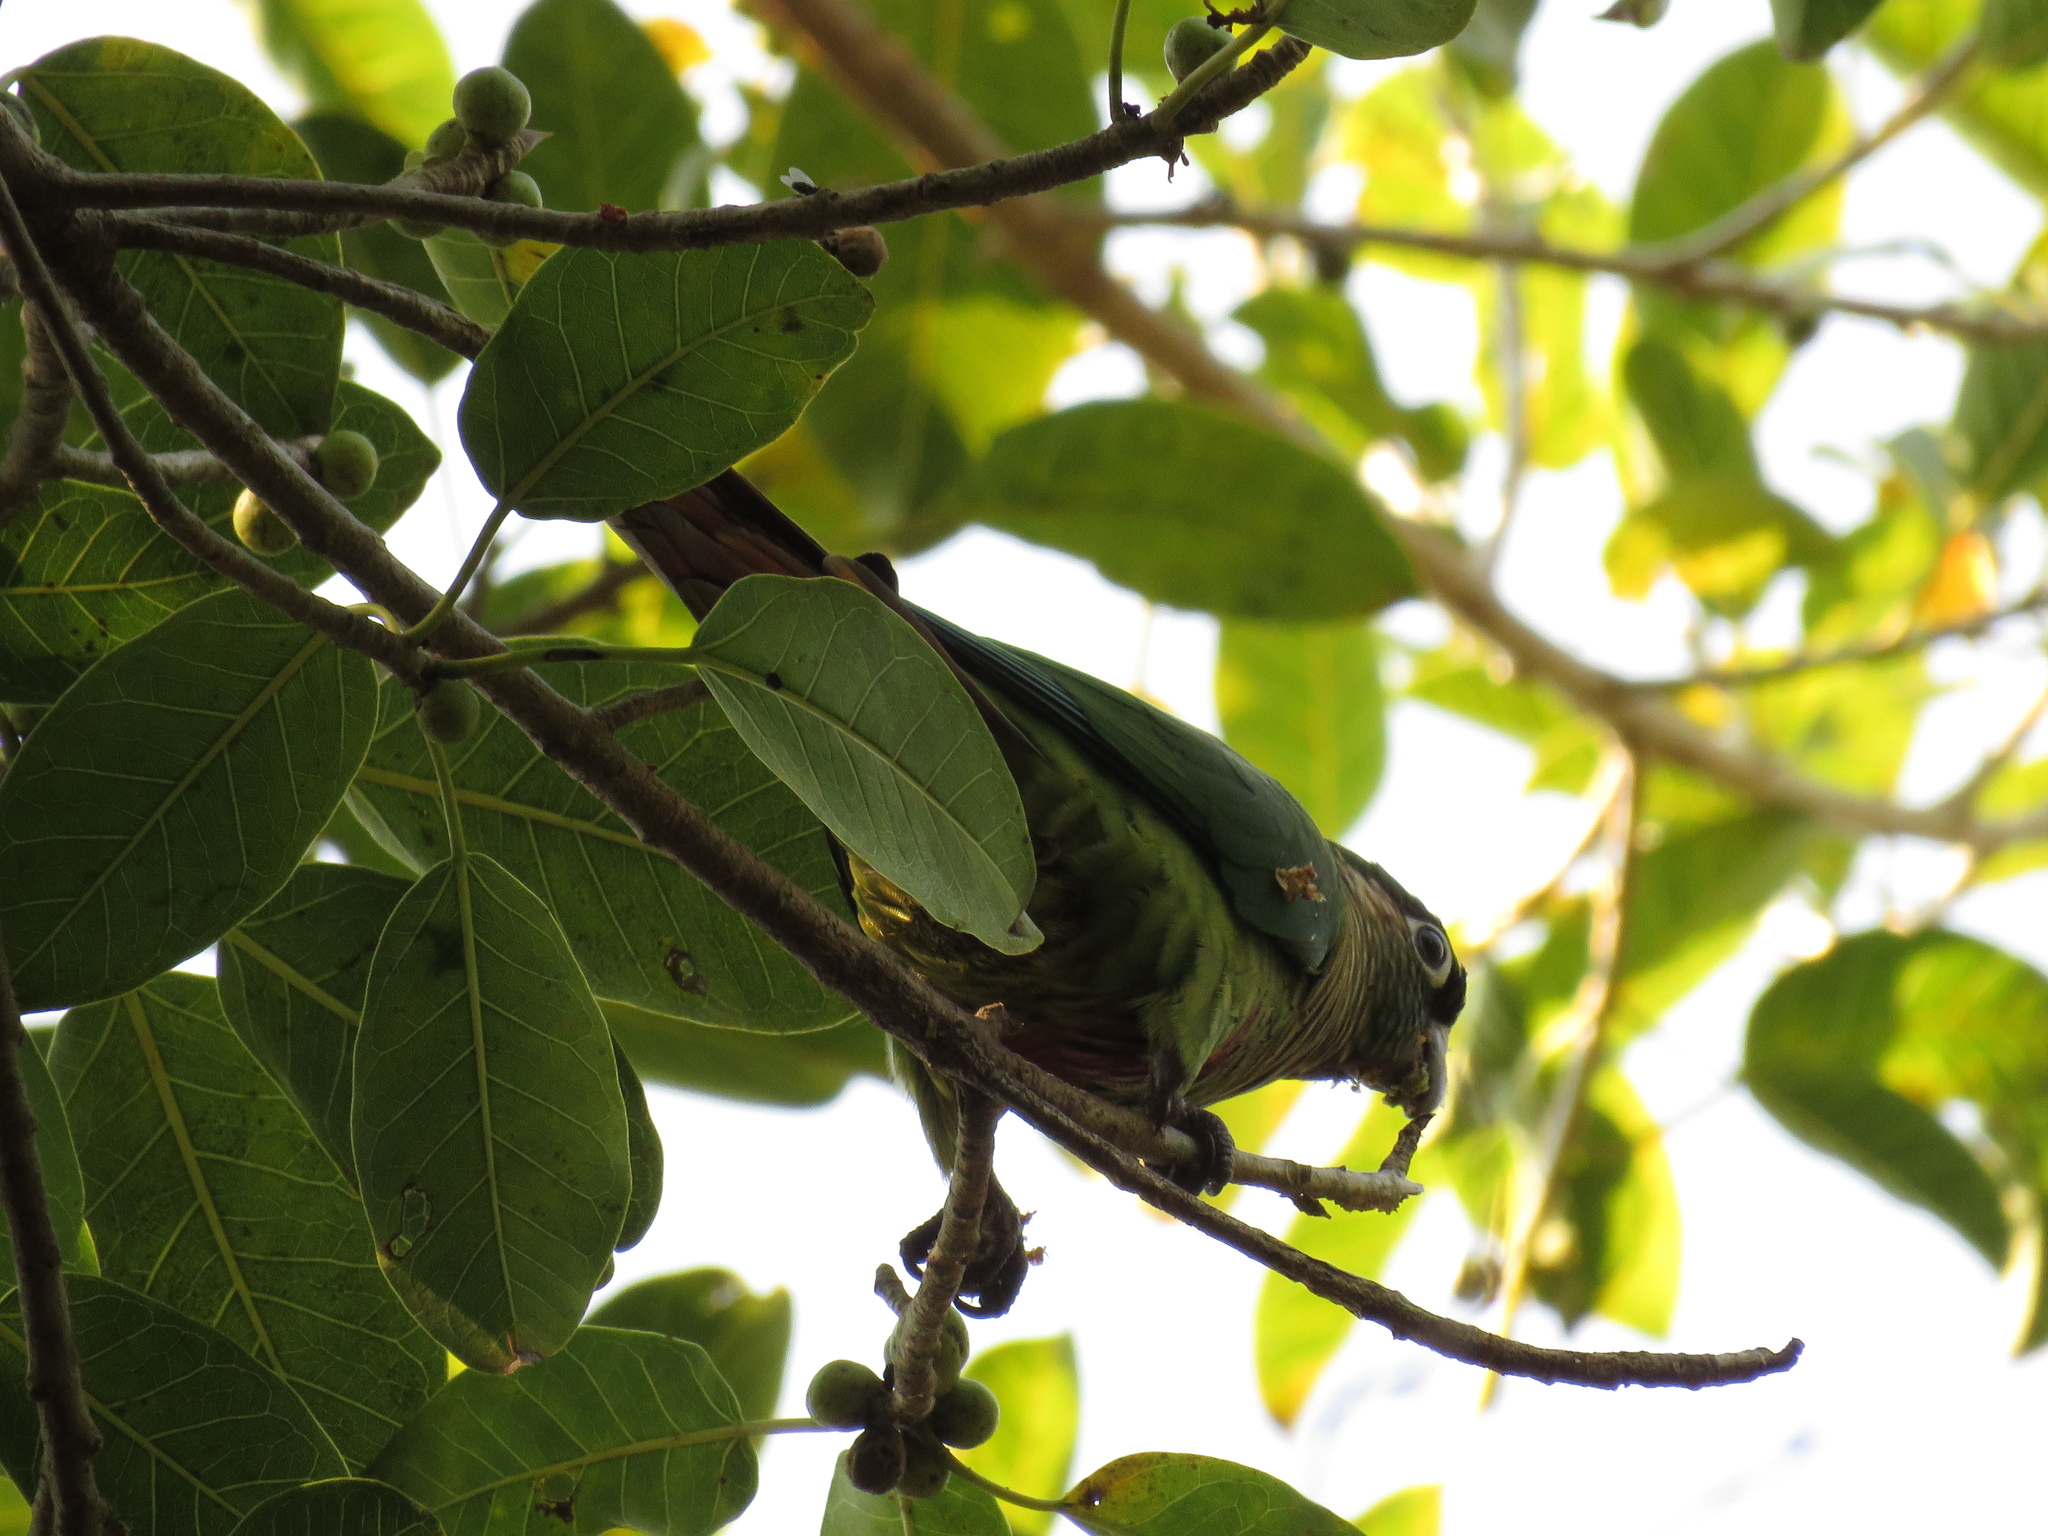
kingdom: Animalia
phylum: Chordata
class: Aves
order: Psittaciformes
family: Psittacidae
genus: Pyrrhura
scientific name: Pyrrhura frontalis
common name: Maroon-bellied parakeet
